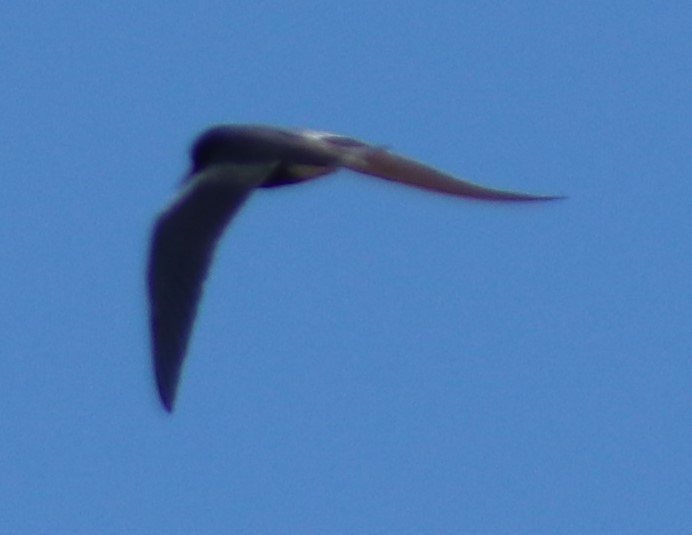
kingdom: Animalia
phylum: Chordata
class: Aves
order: Charadriiformes
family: Laridae
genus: Chlidonias
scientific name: Chlidonias niger
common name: Black tern
